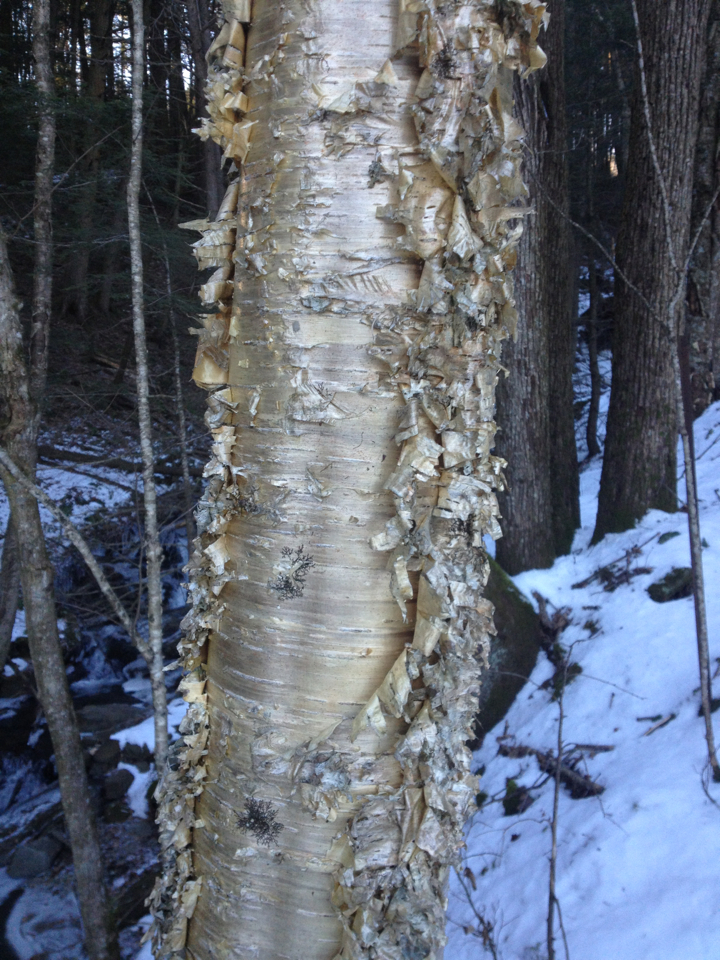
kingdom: Plantae
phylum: Tracheophyta
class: Magnoliopsida
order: Fagales
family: Betulaceae
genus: Betula
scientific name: Betula alleghaniensis
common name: Yellow birch
